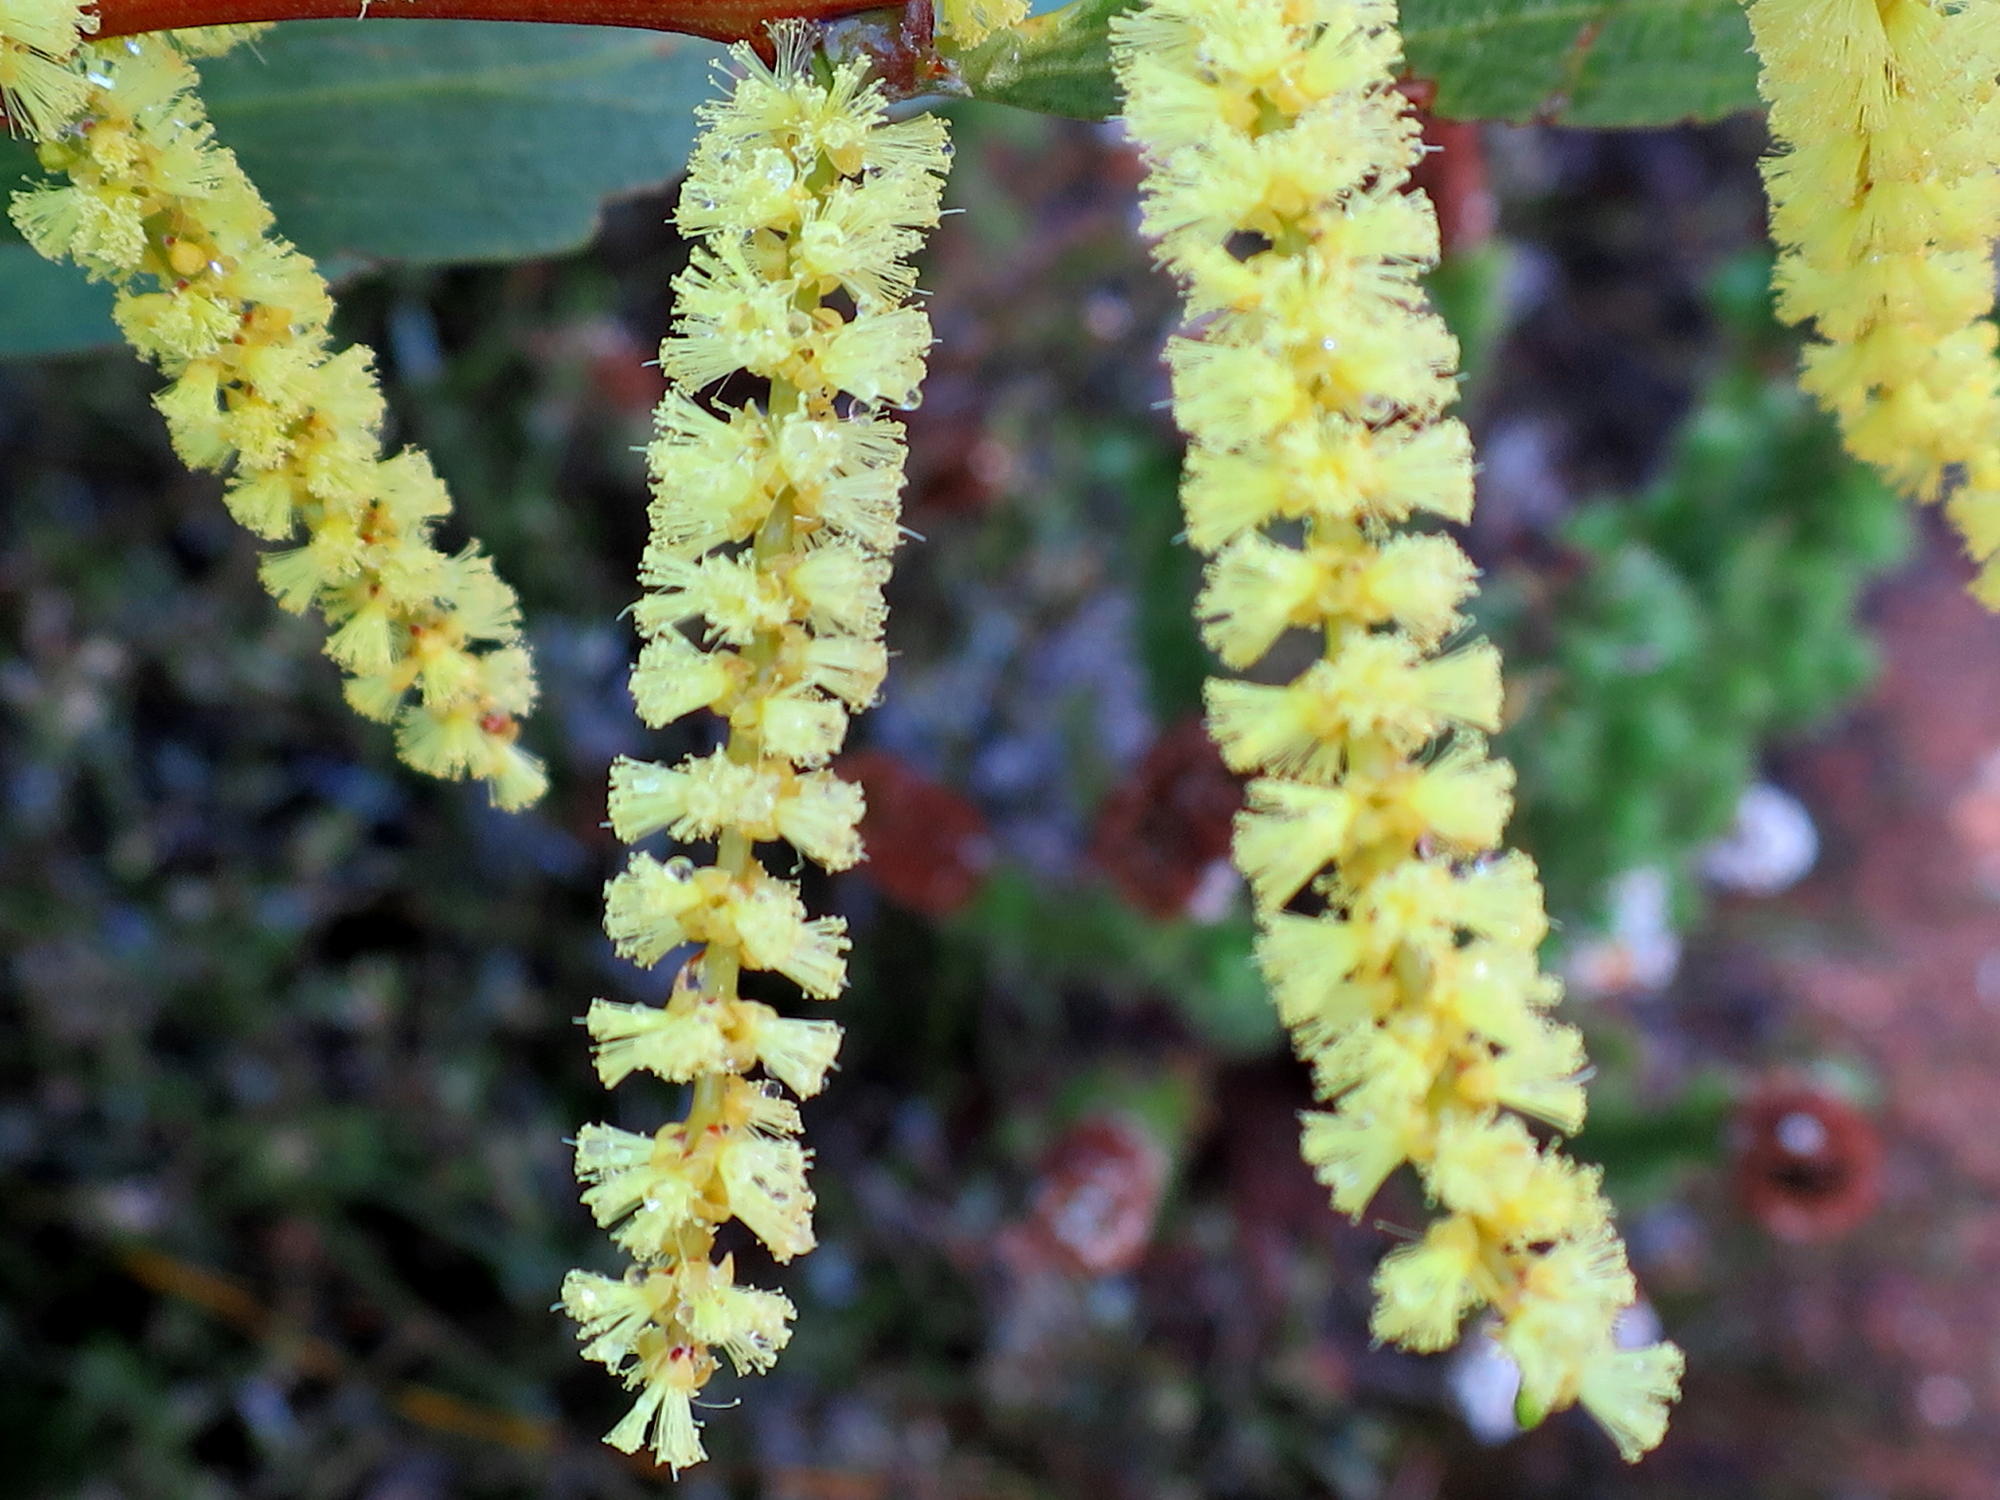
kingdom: Plantae
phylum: Tracheophyta
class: Magnoliopsida
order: Fabales
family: Fabaceae
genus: Acacia
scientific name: Acacia longifolia
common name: Sydney golden wattle
